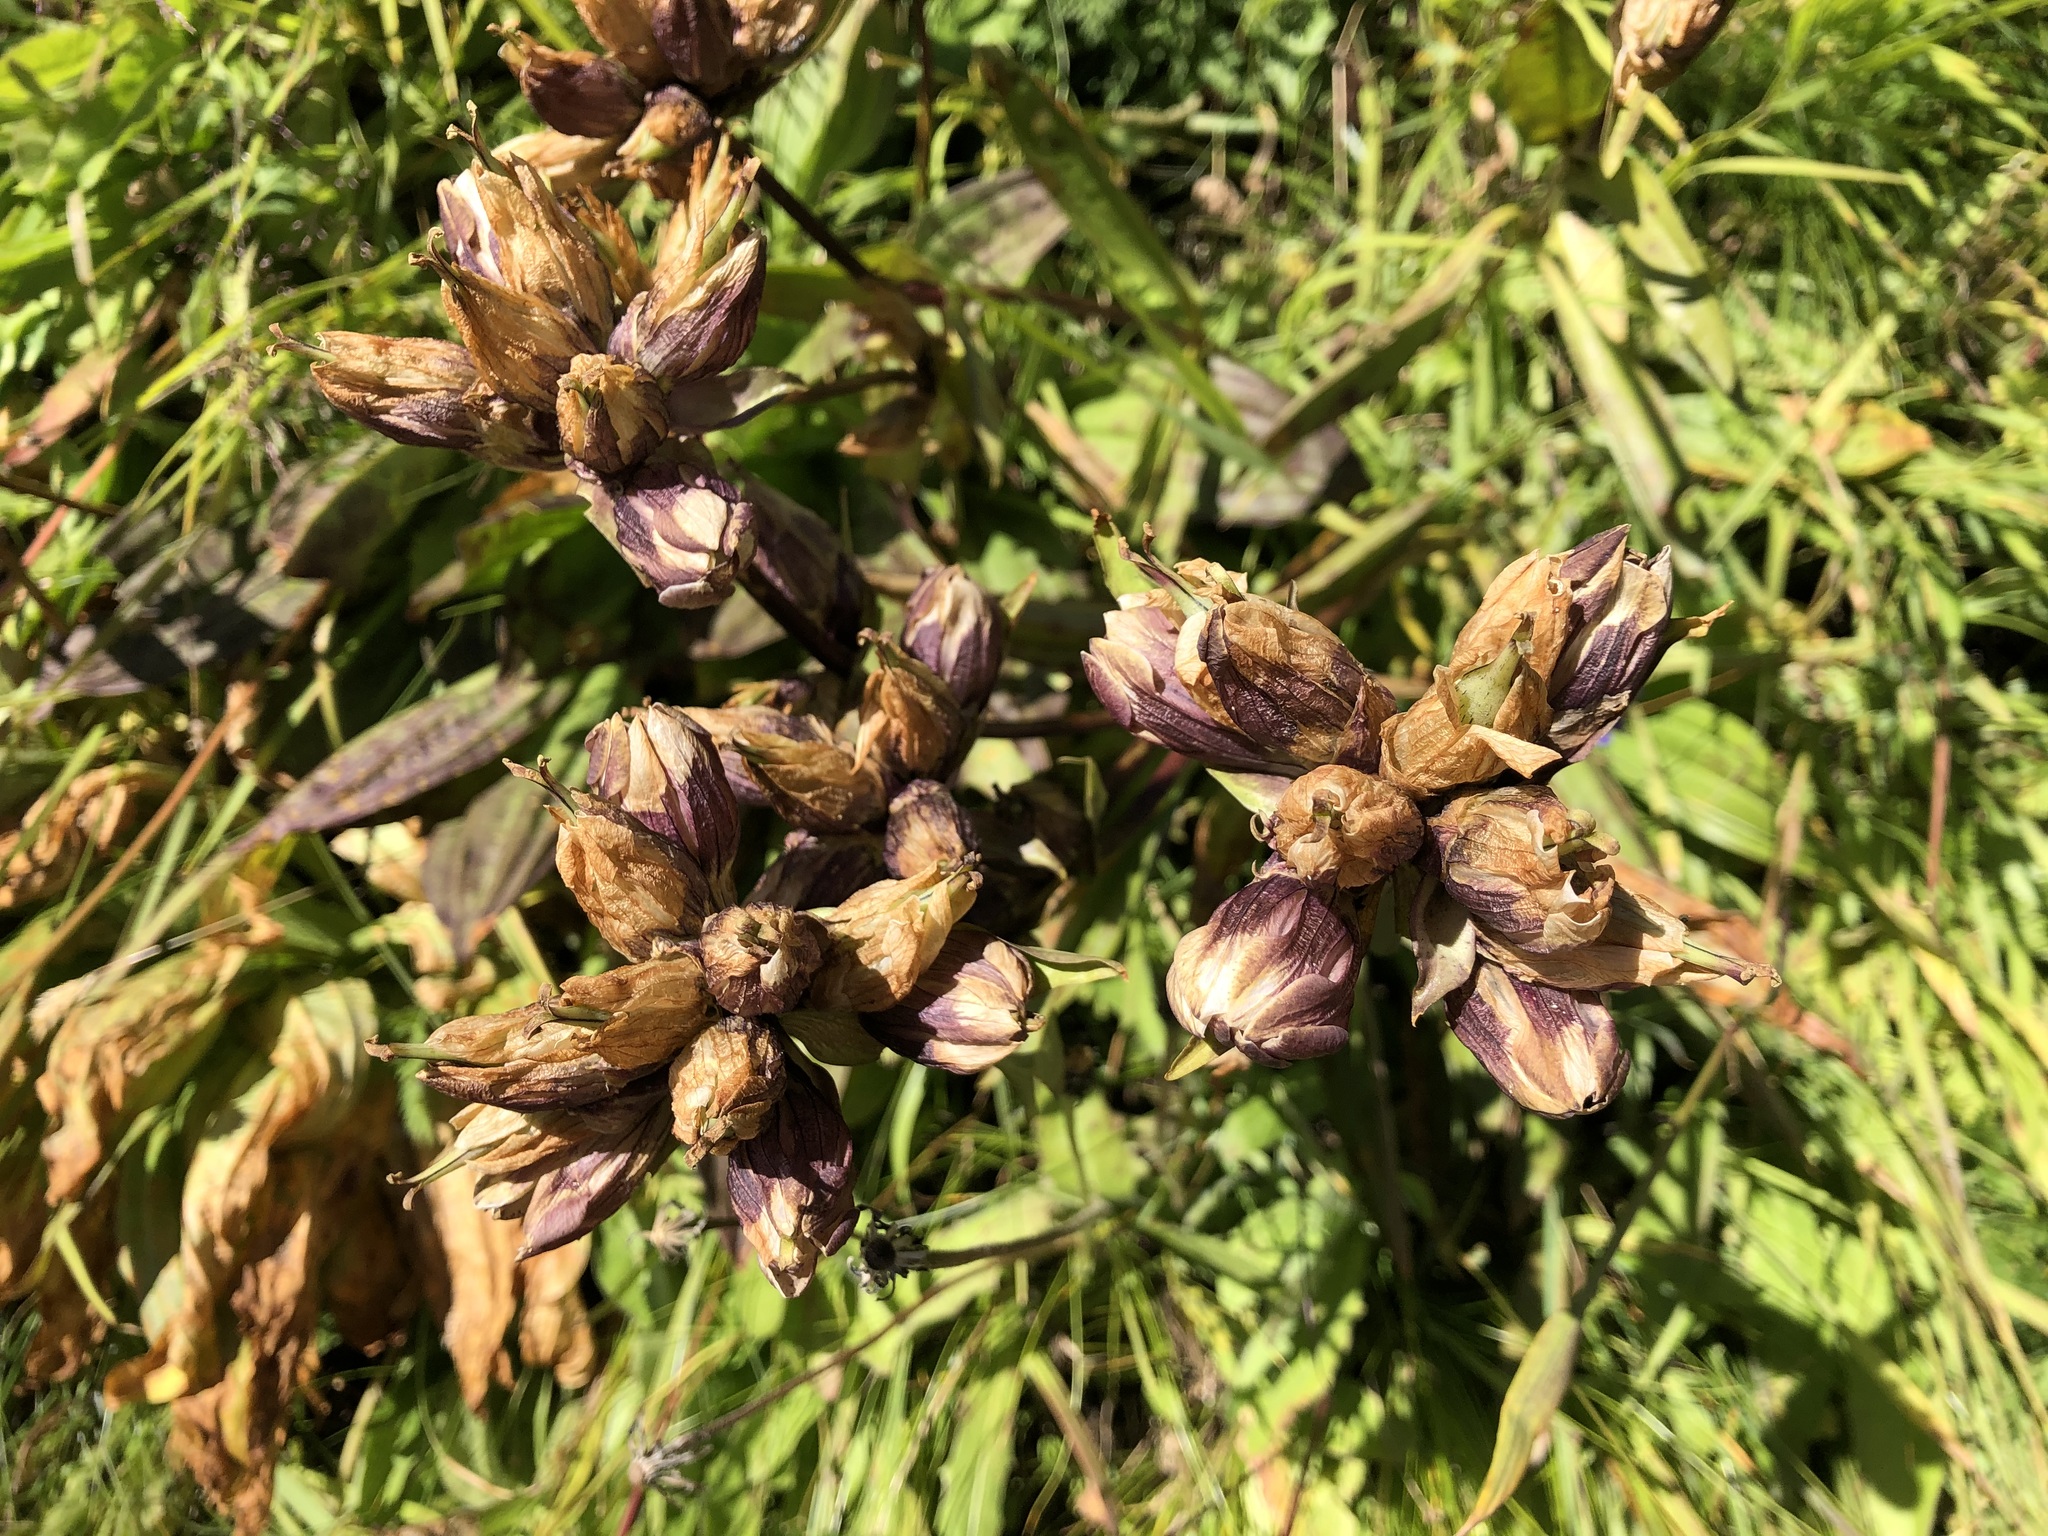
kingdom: Plantae
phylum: Tracheophyta
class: Magnoliopsida
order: Gentianales
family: Gentianaceae
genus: Gentiana
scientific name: Gentiana purpurea
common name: Purple gentian
